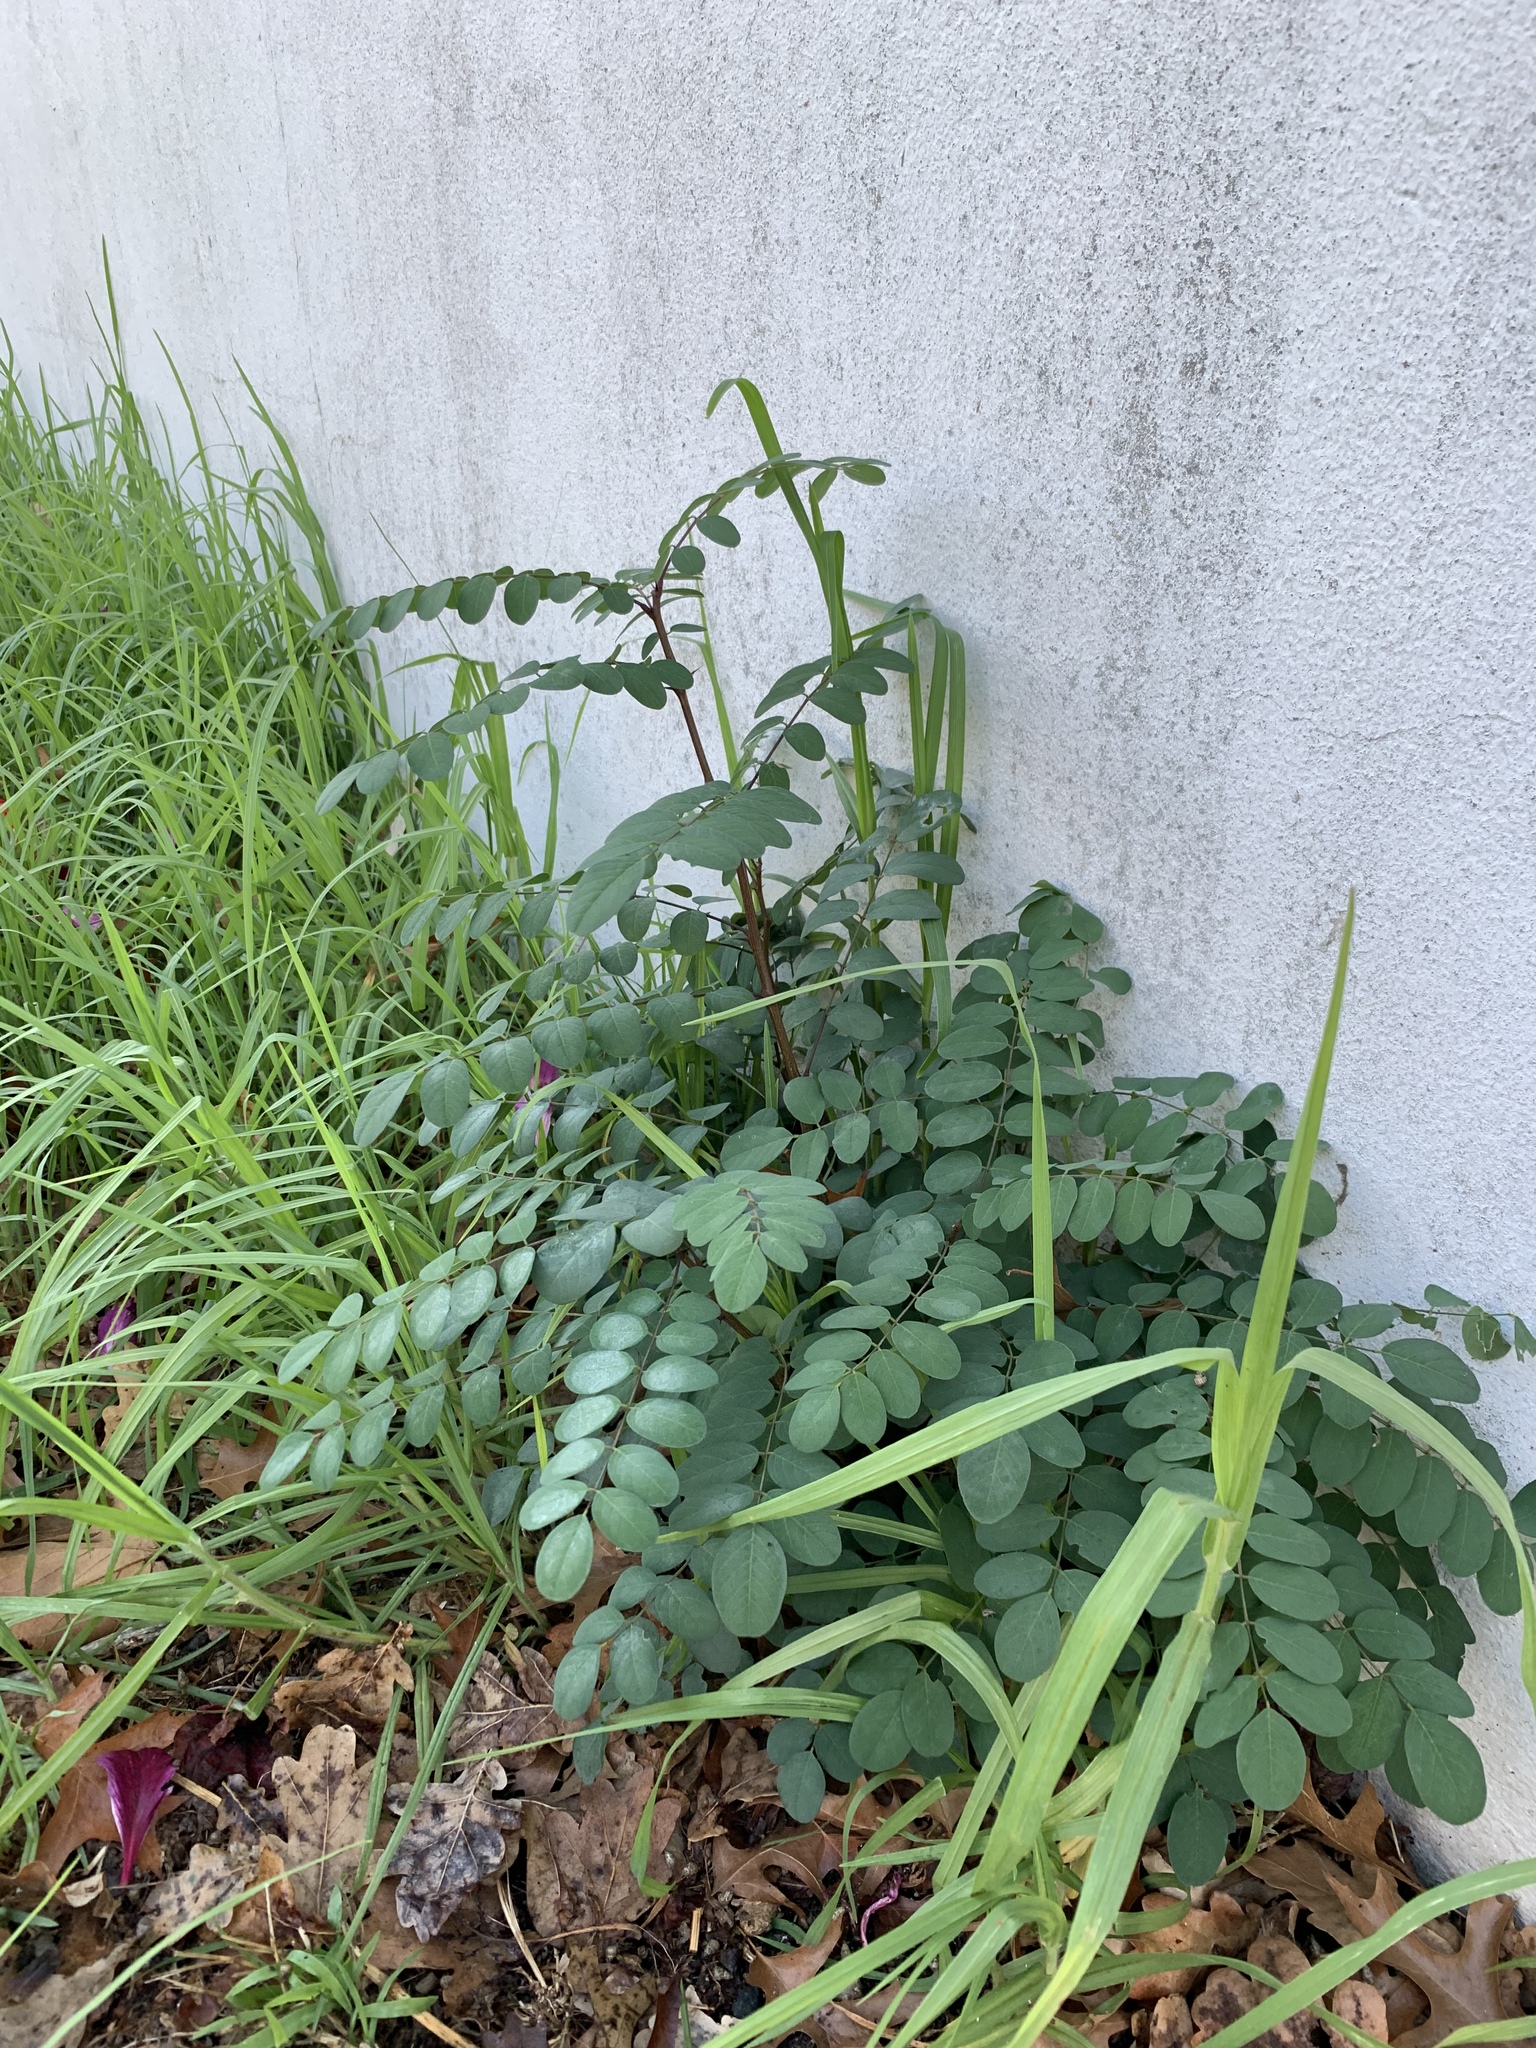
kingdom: Plantae
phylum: Tracheophyta
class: Magnoliopsida
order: Fabales
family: Fabaceae
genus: Robinia
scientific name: Robinia pseudoacacia
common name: Black locust
